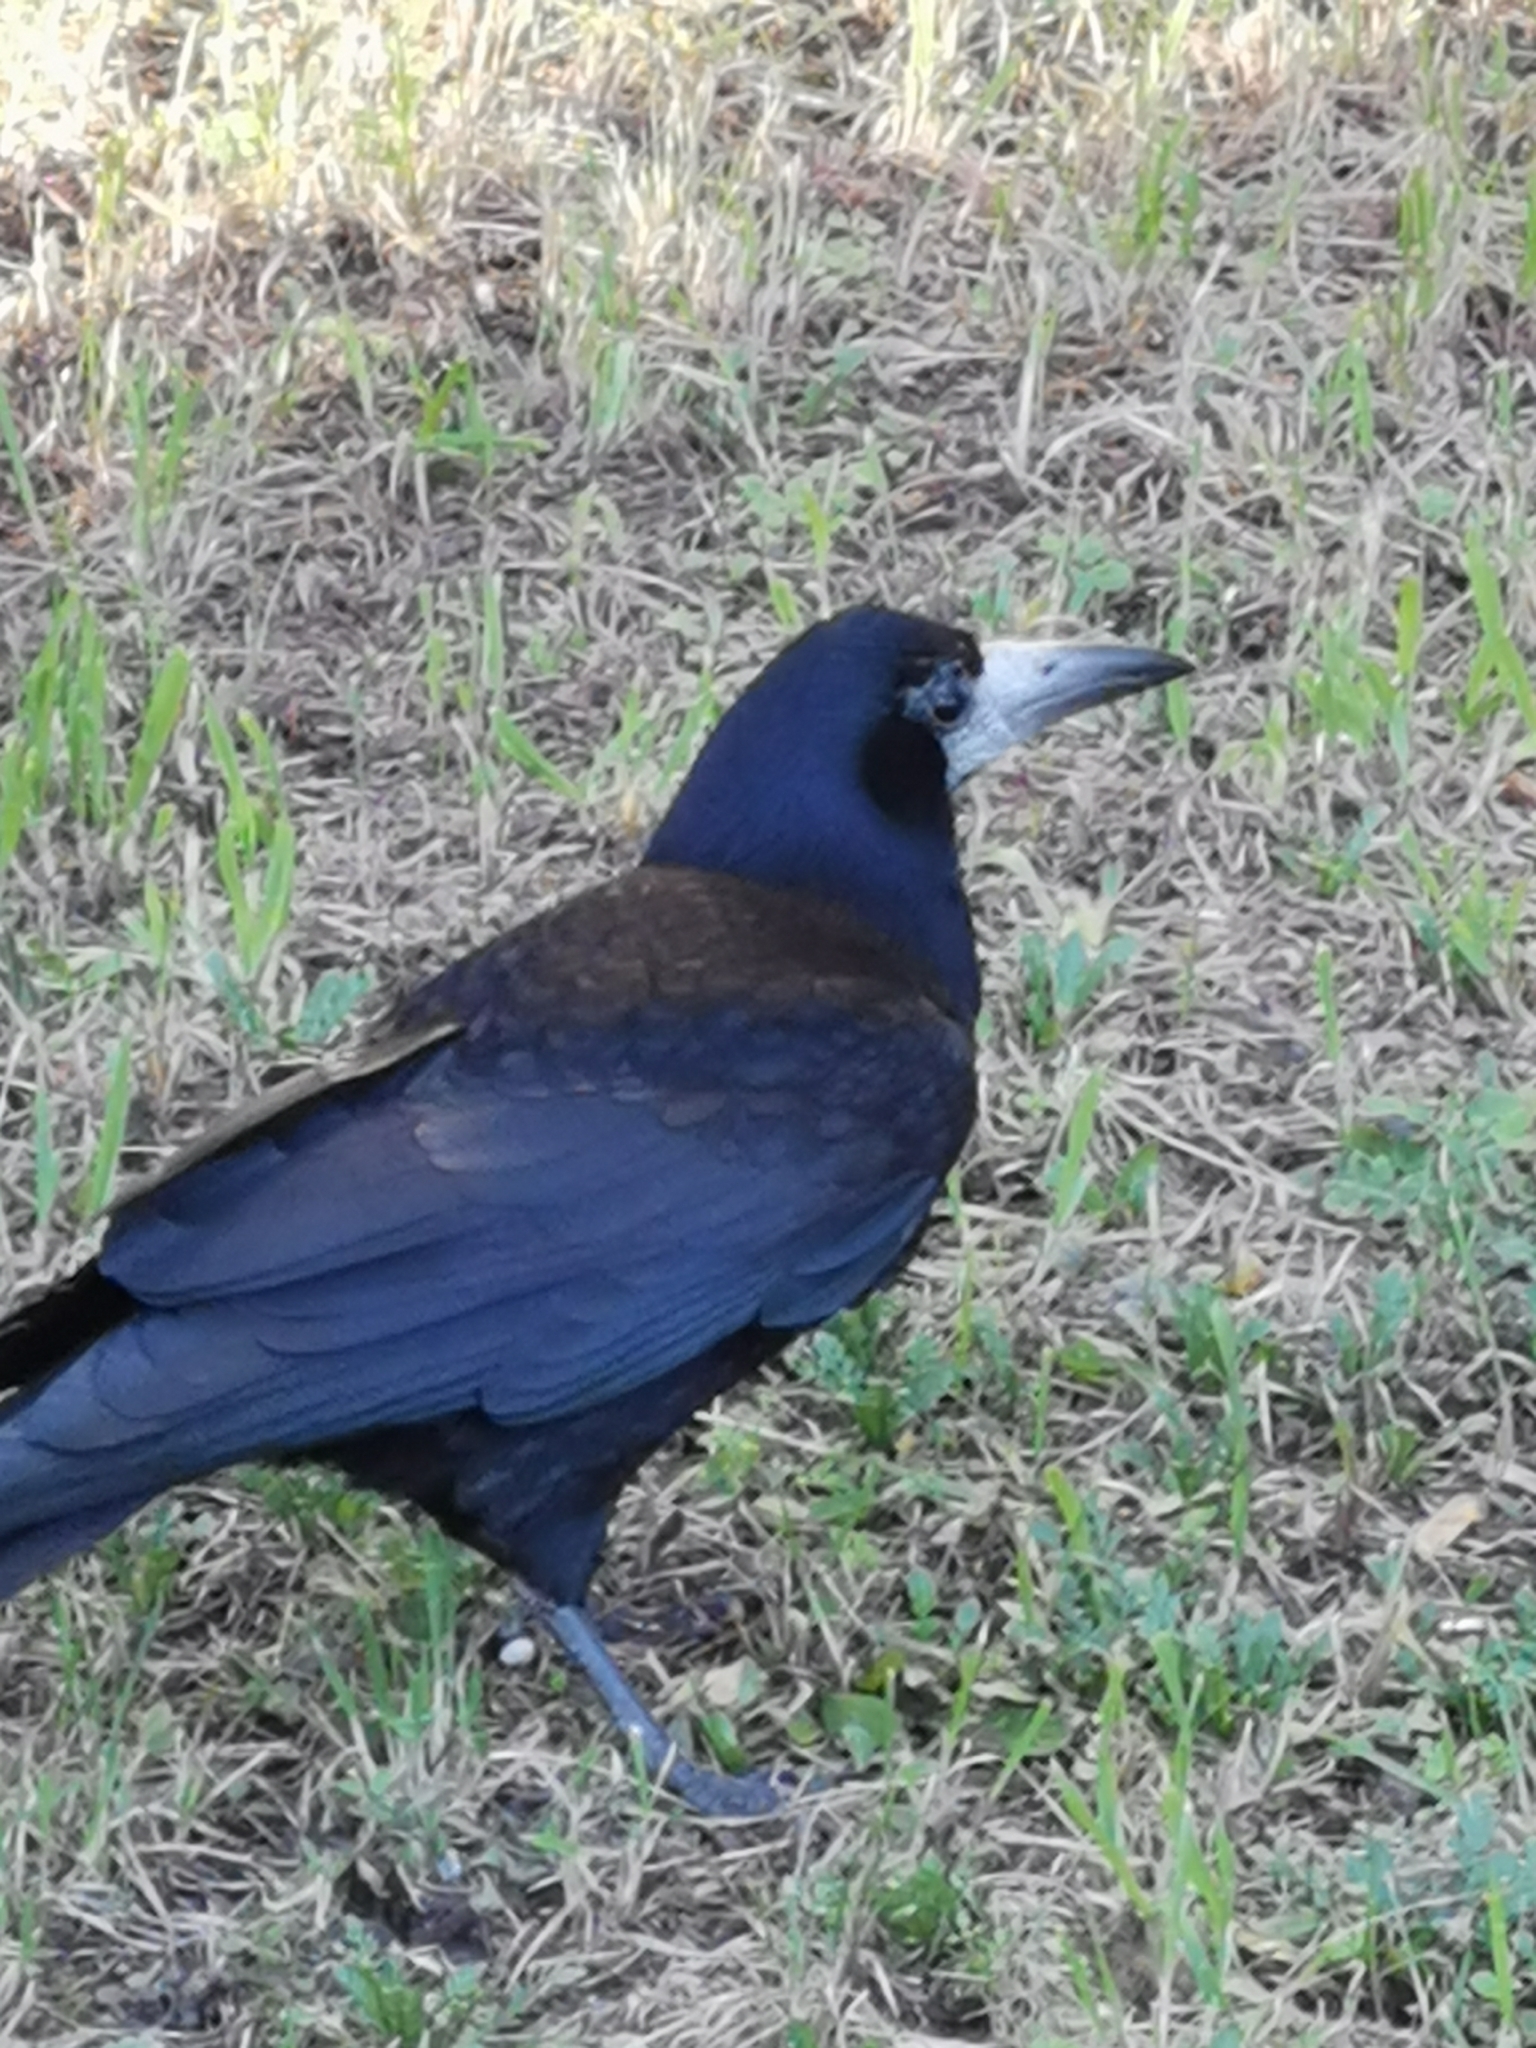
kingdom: Animalia
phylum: Chordata
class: Aves
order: Passeriformes
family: Corvidae
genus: Corvus
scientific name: Corvus frugilegus
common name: Rook
